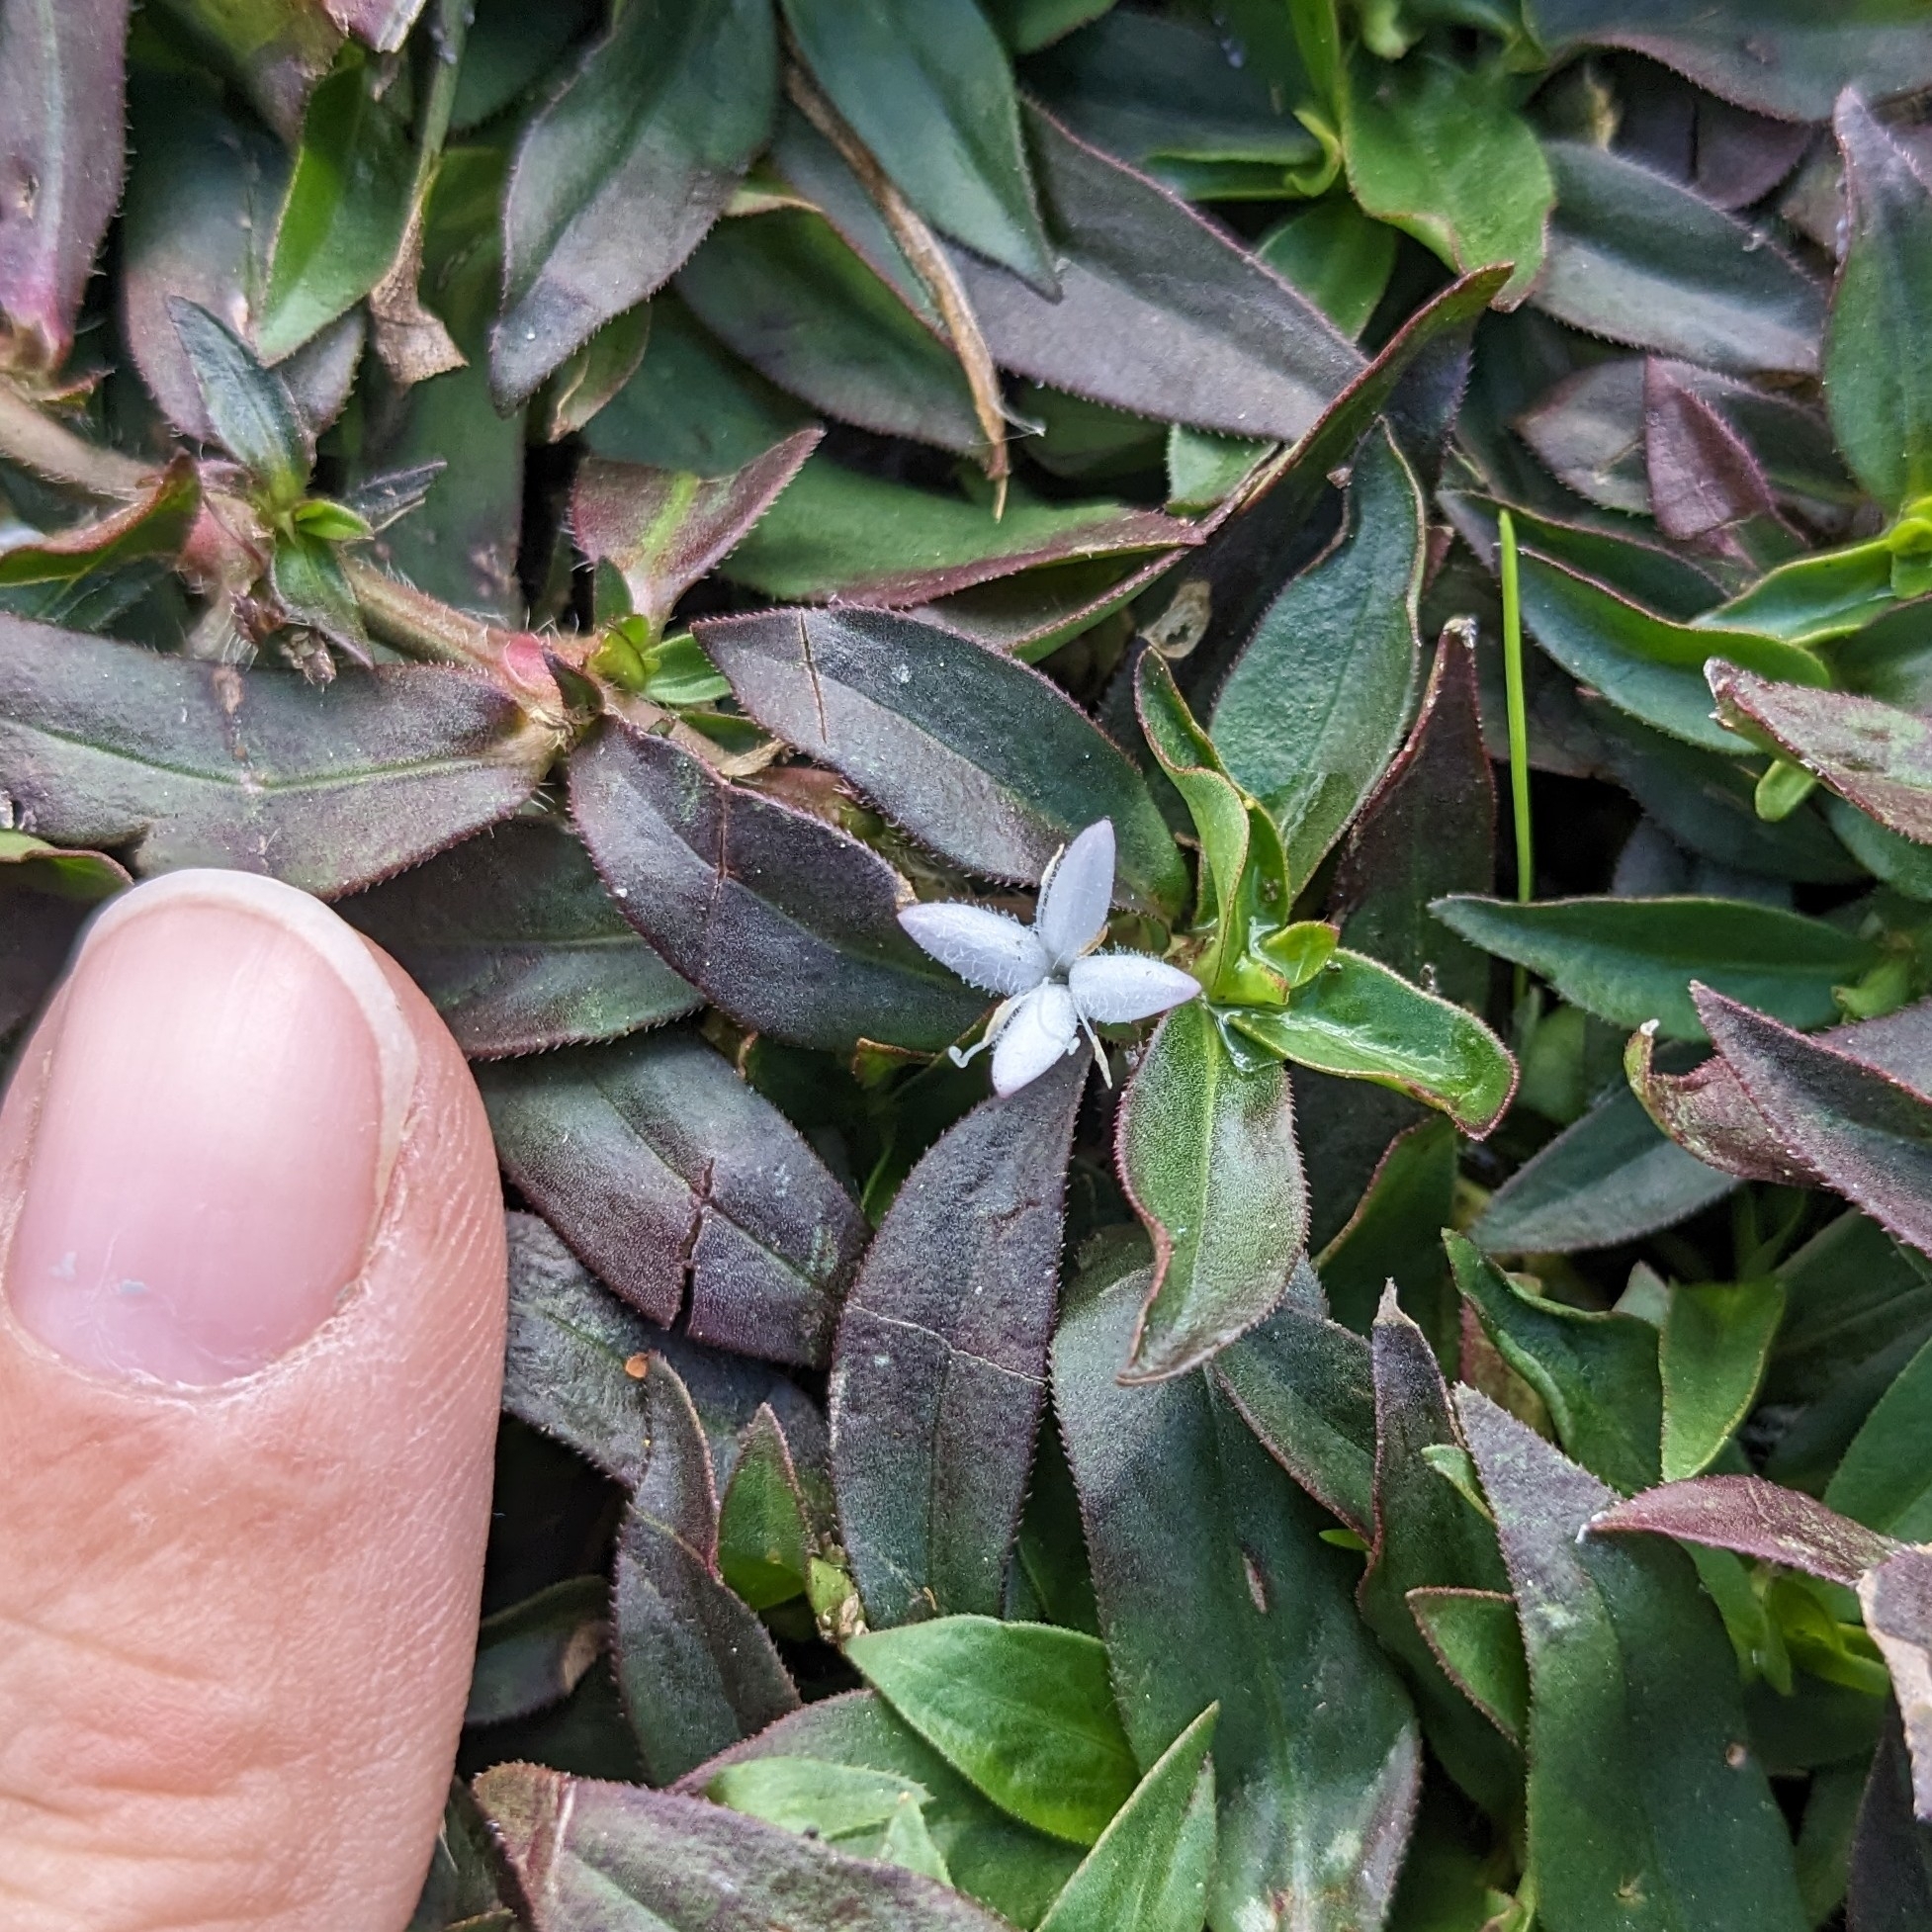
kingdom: Plantae
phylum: Tracheophyta
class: Magnoliopsida
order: Gentianales
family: Rubiaceae
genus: Diodia
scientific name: Diodia virginiana
